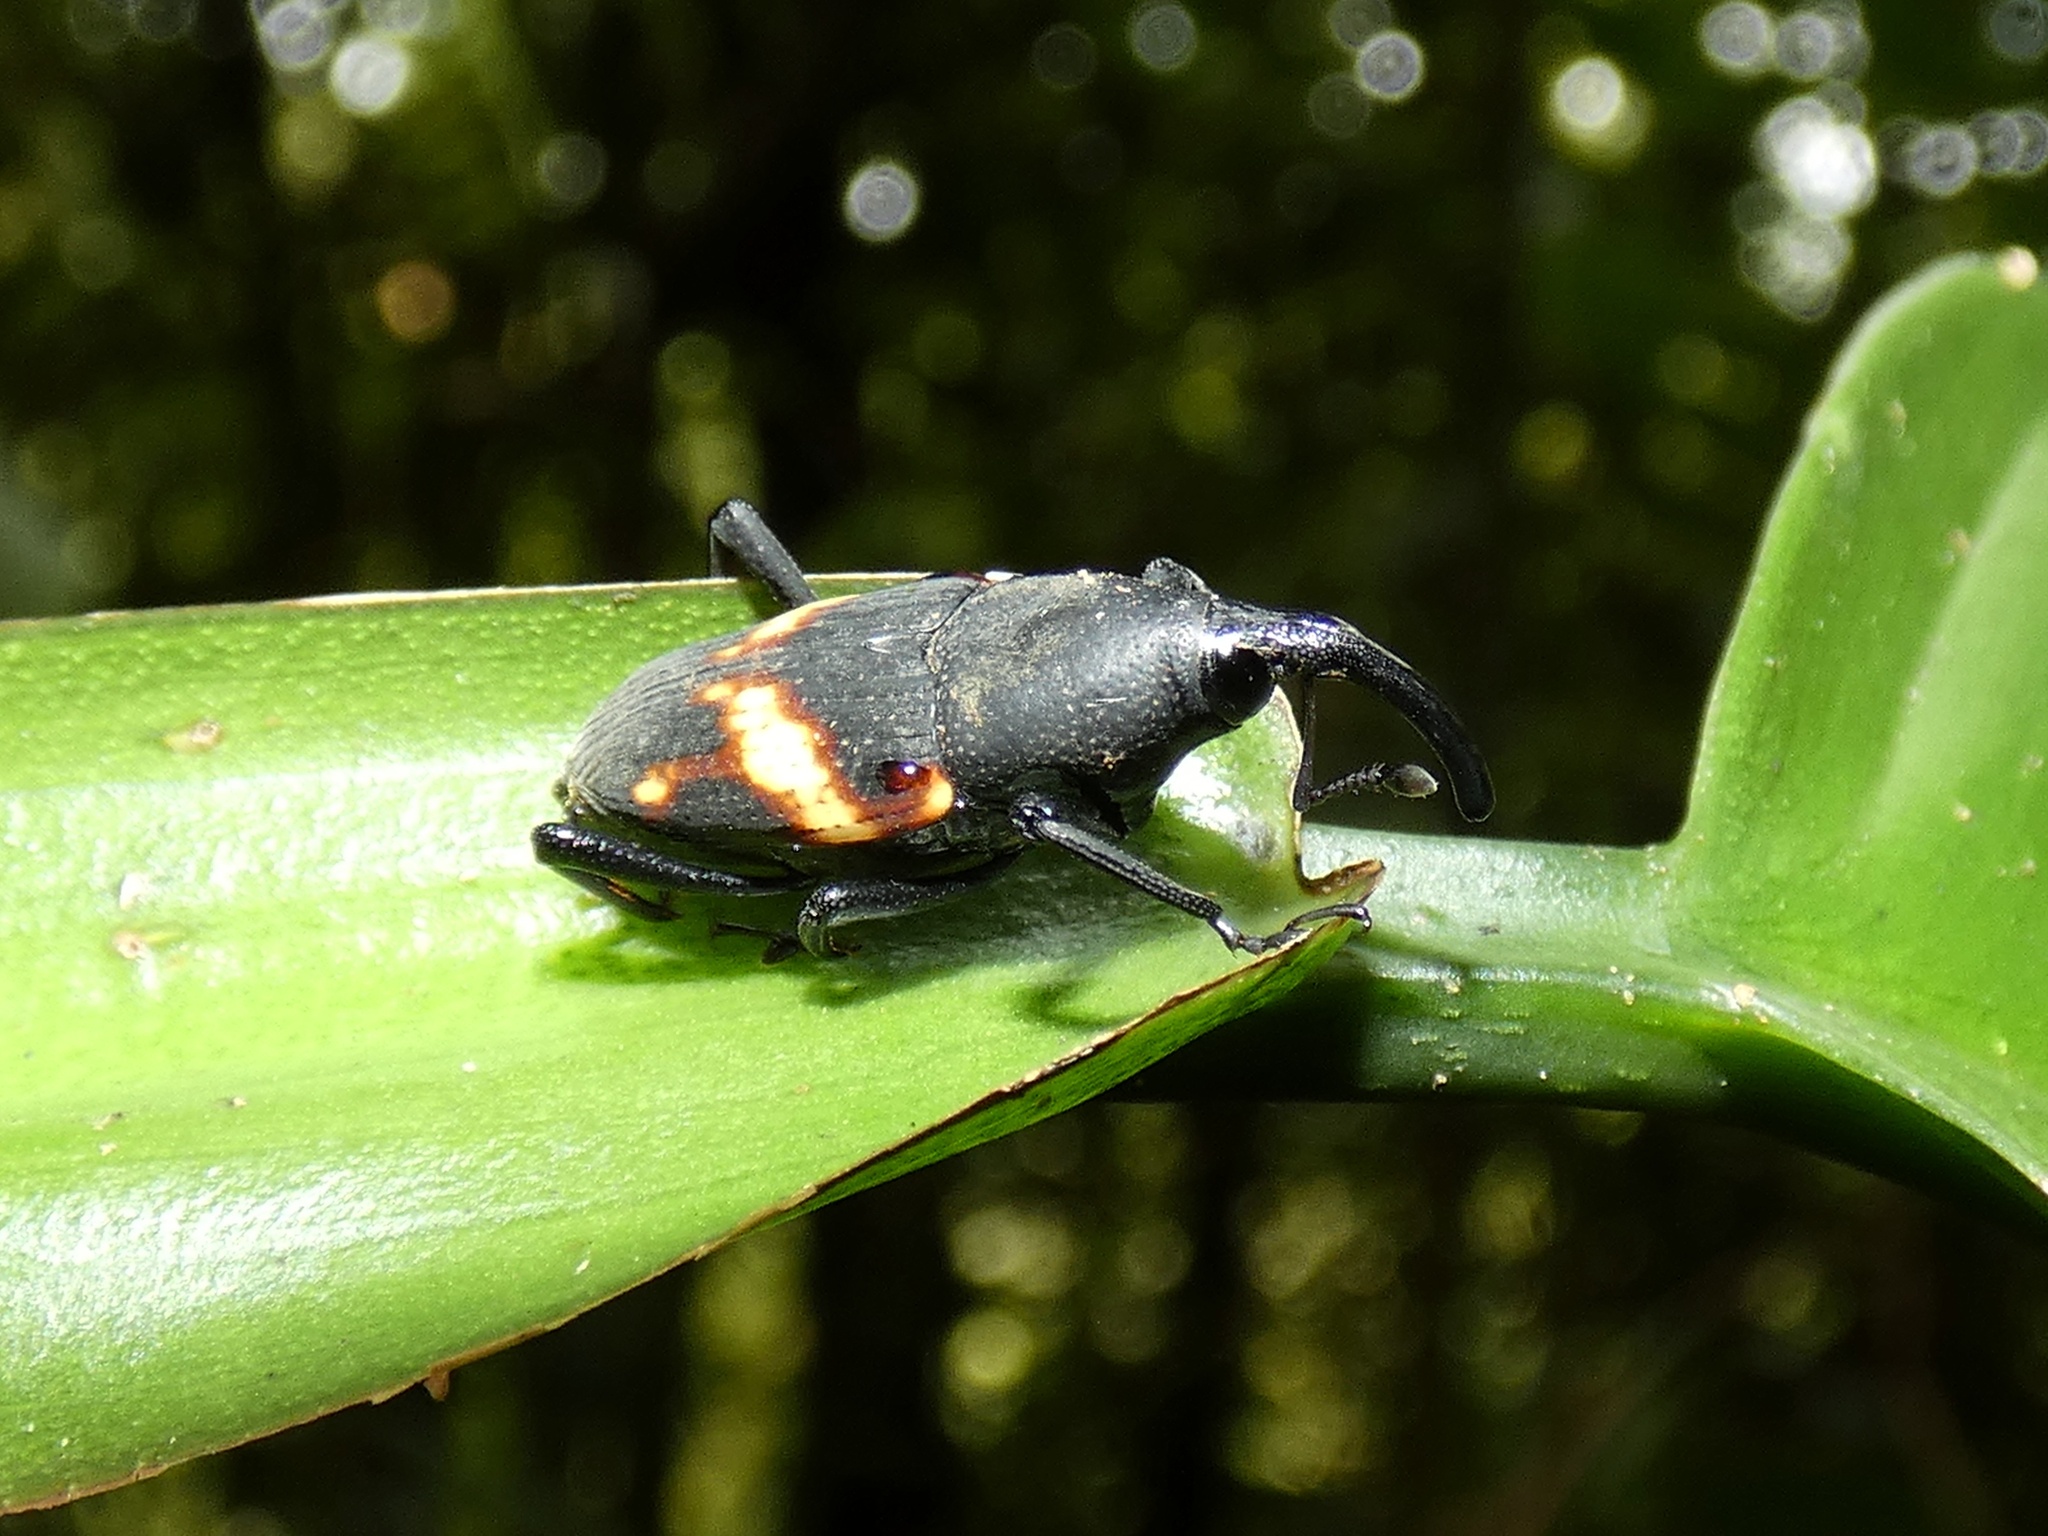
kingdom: Animalia
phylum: Arthropoda
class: Insecta
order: Coleoptera
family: Dryophthoridae
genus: Cactophagus
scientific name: Cactophagus rectistriatus
